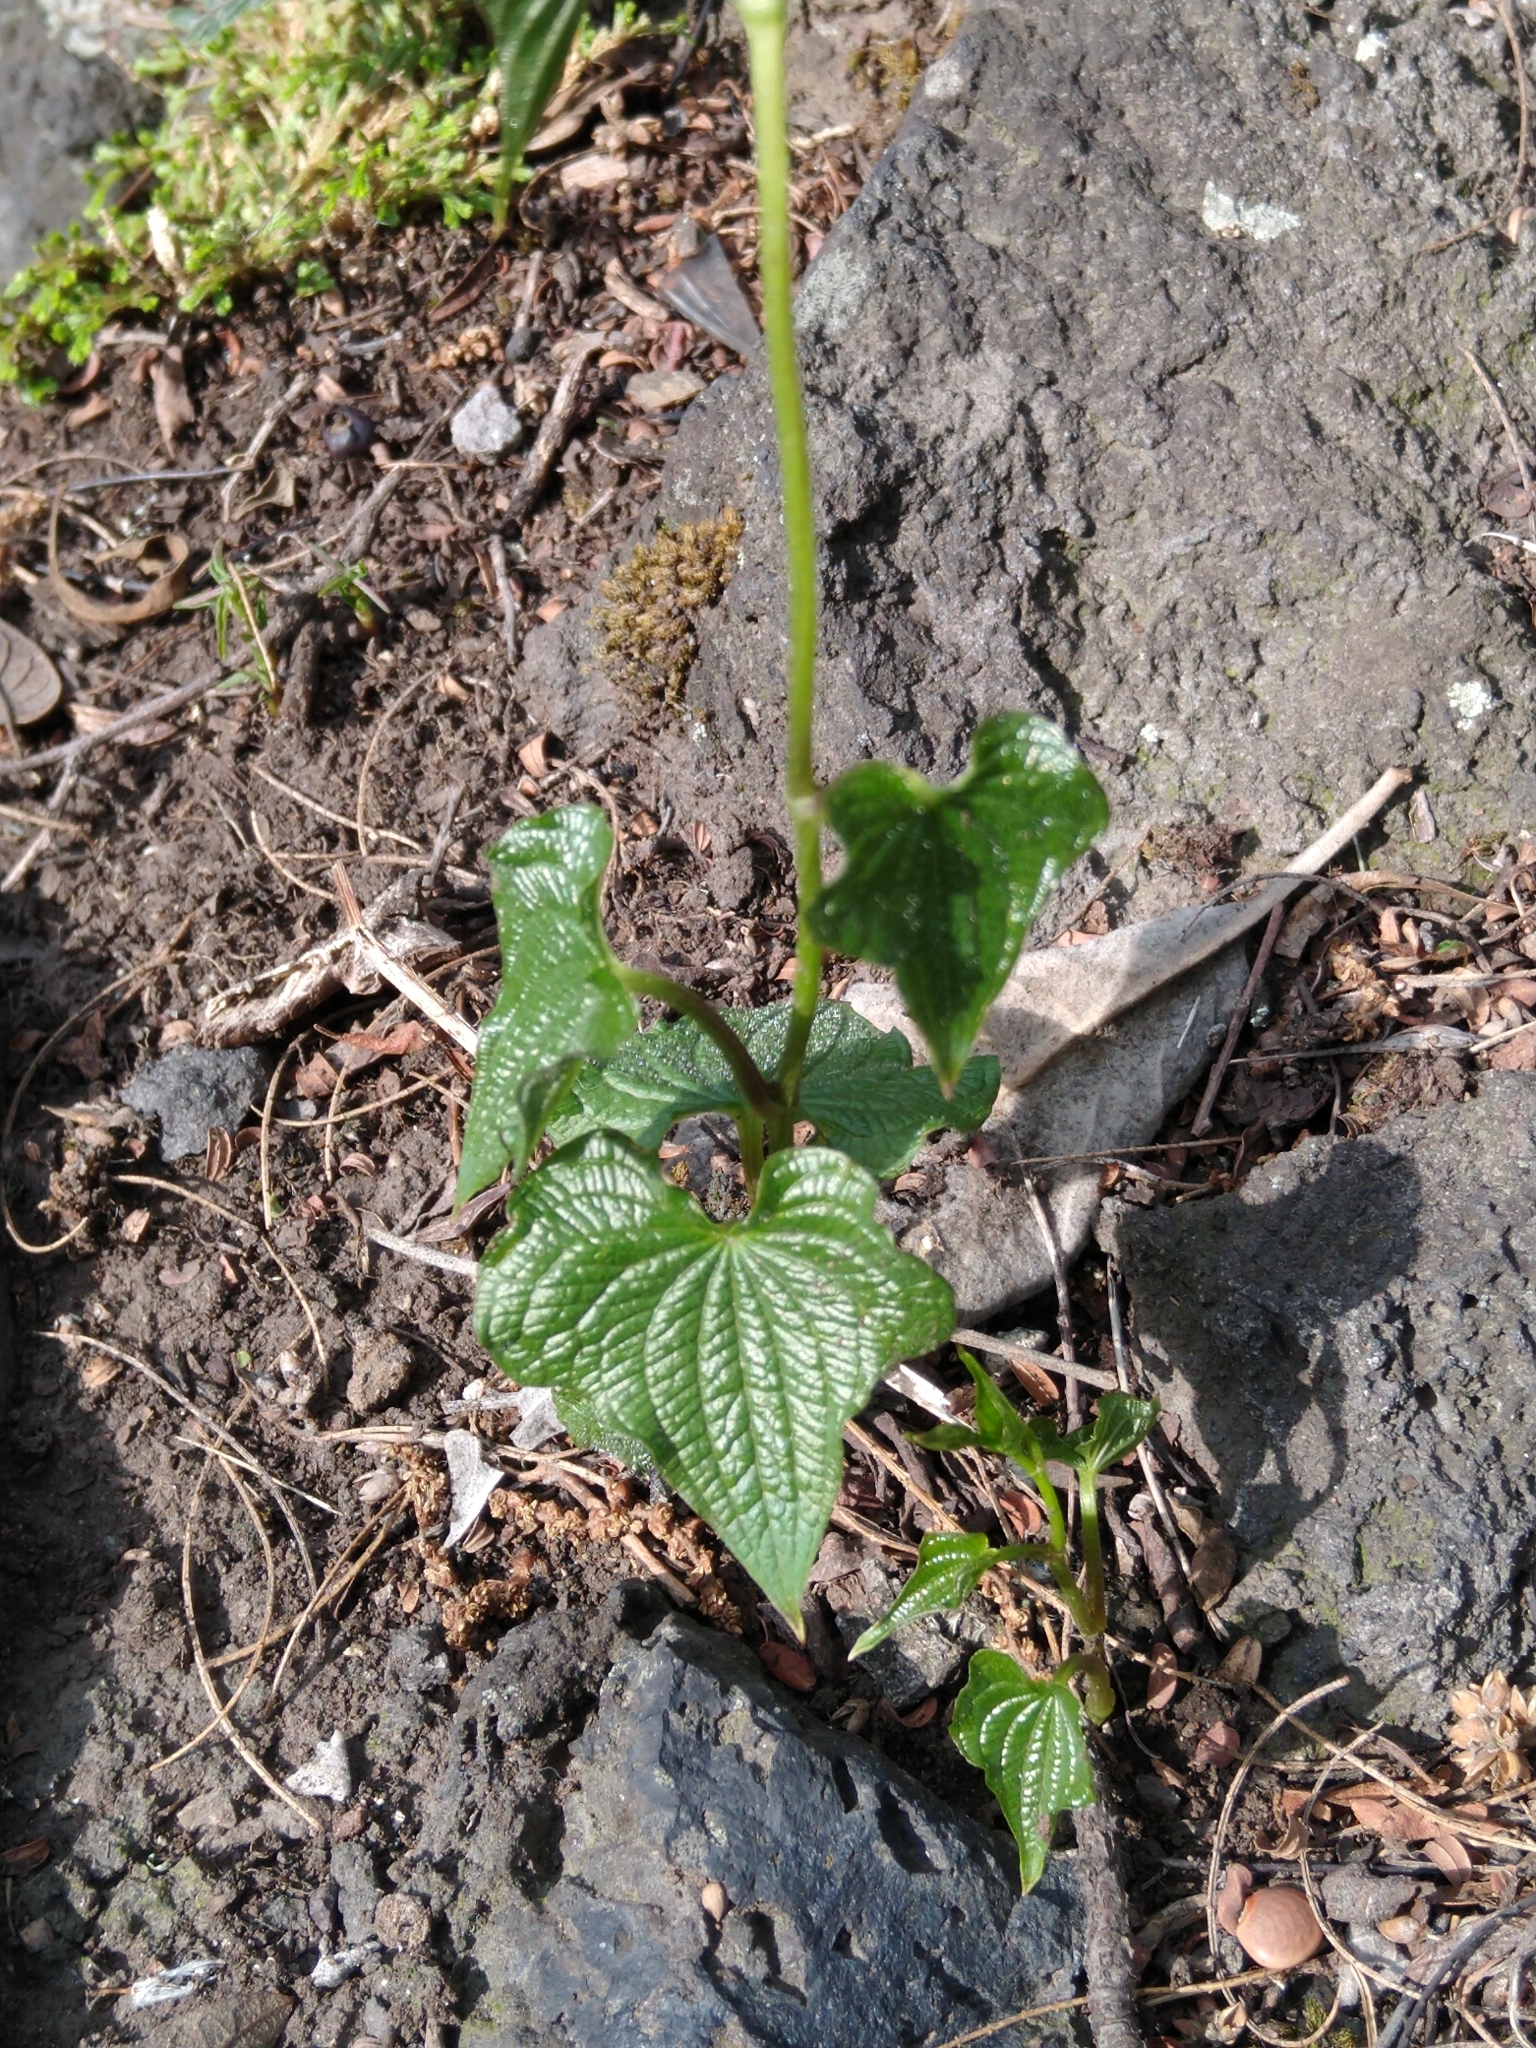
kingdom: Plantae
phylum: Tracheophyta
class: Liliopsida
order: Dioscoreales
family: Dioscoreaceae
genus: Dioscorea
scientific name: Dioscorea galeottiana
